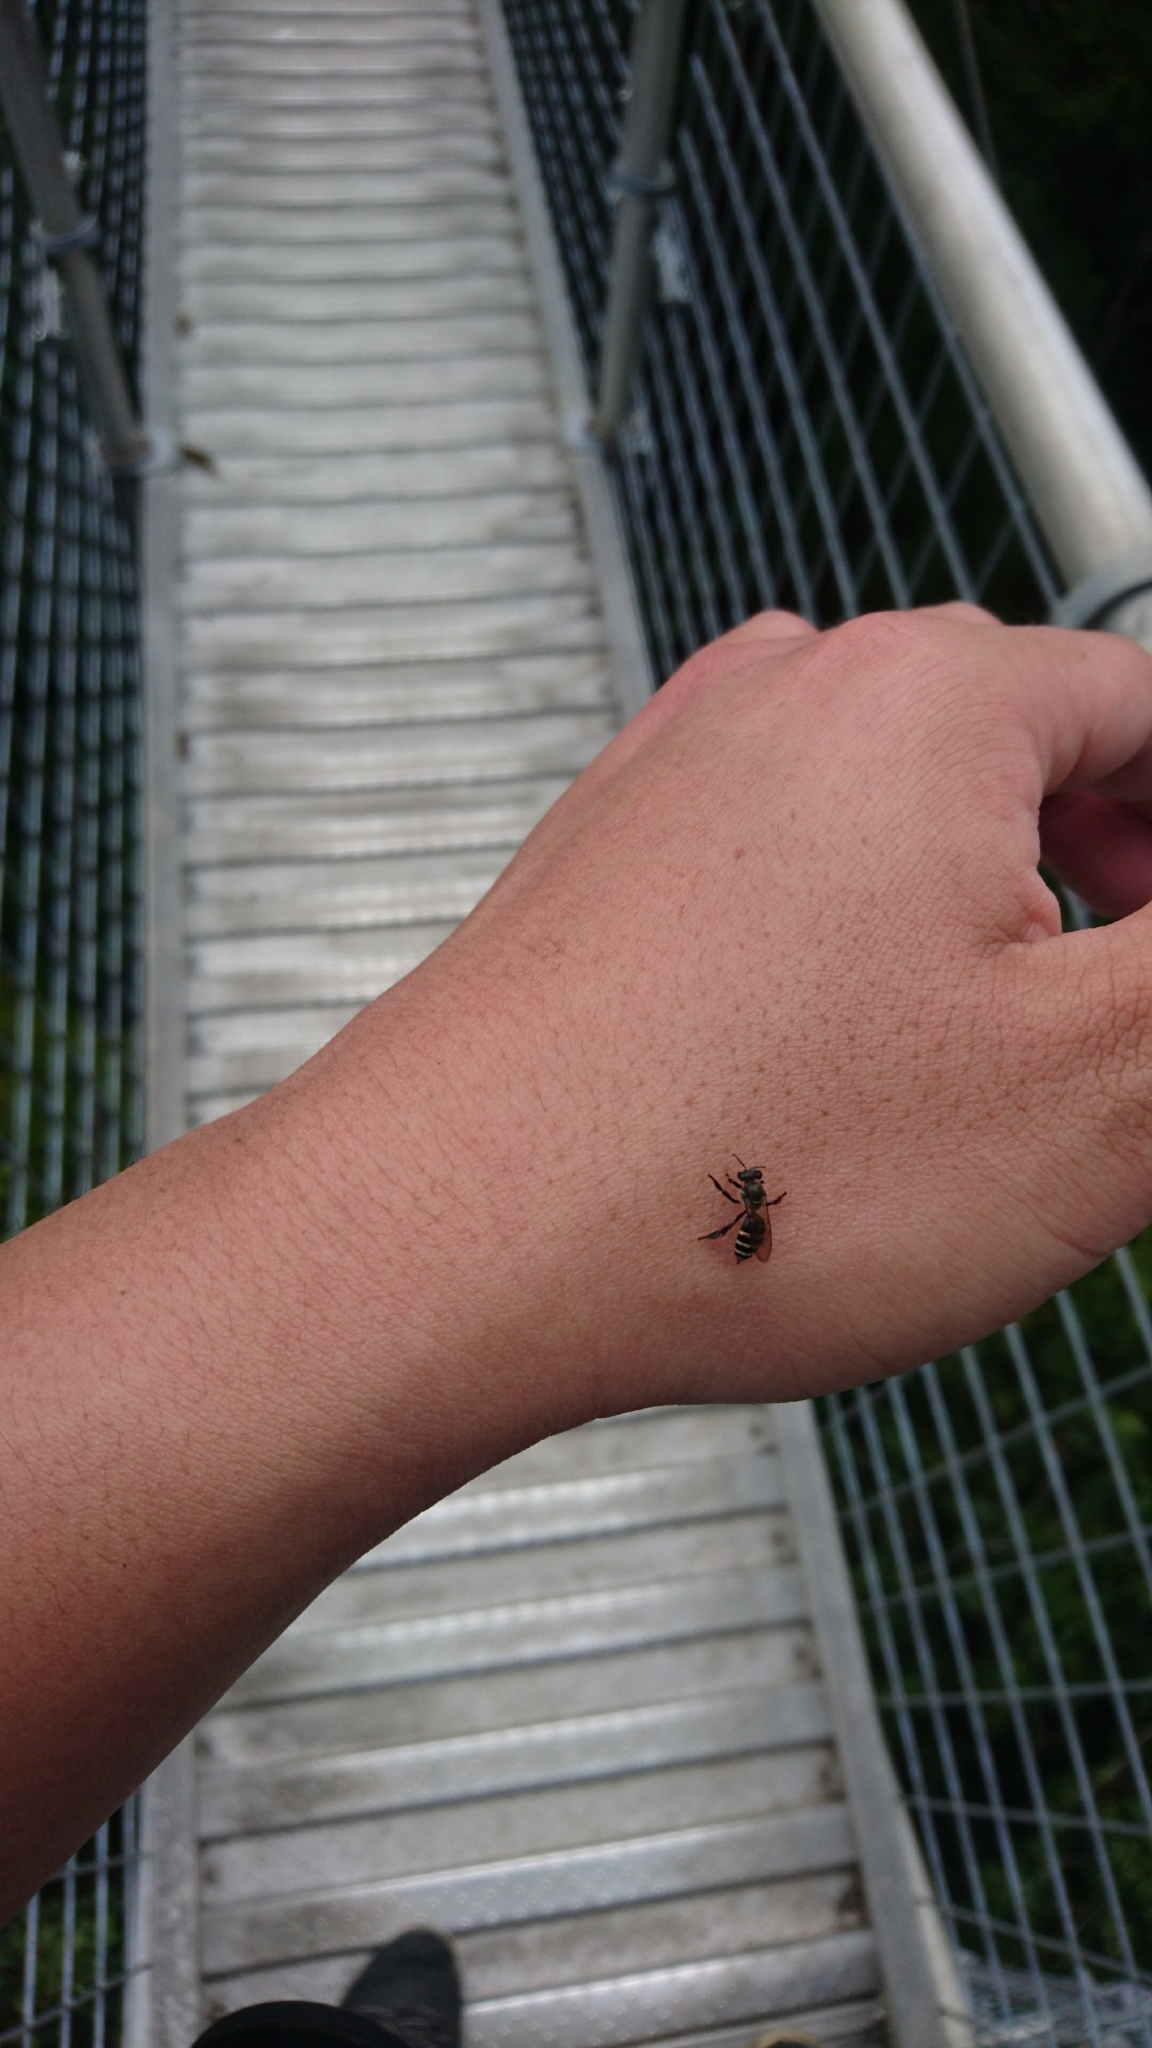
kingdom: Animalia
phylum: Arthropoda
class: Insecta
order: Hymenoptera
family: Apidae
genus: Apis
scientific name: Apis andreniformis
